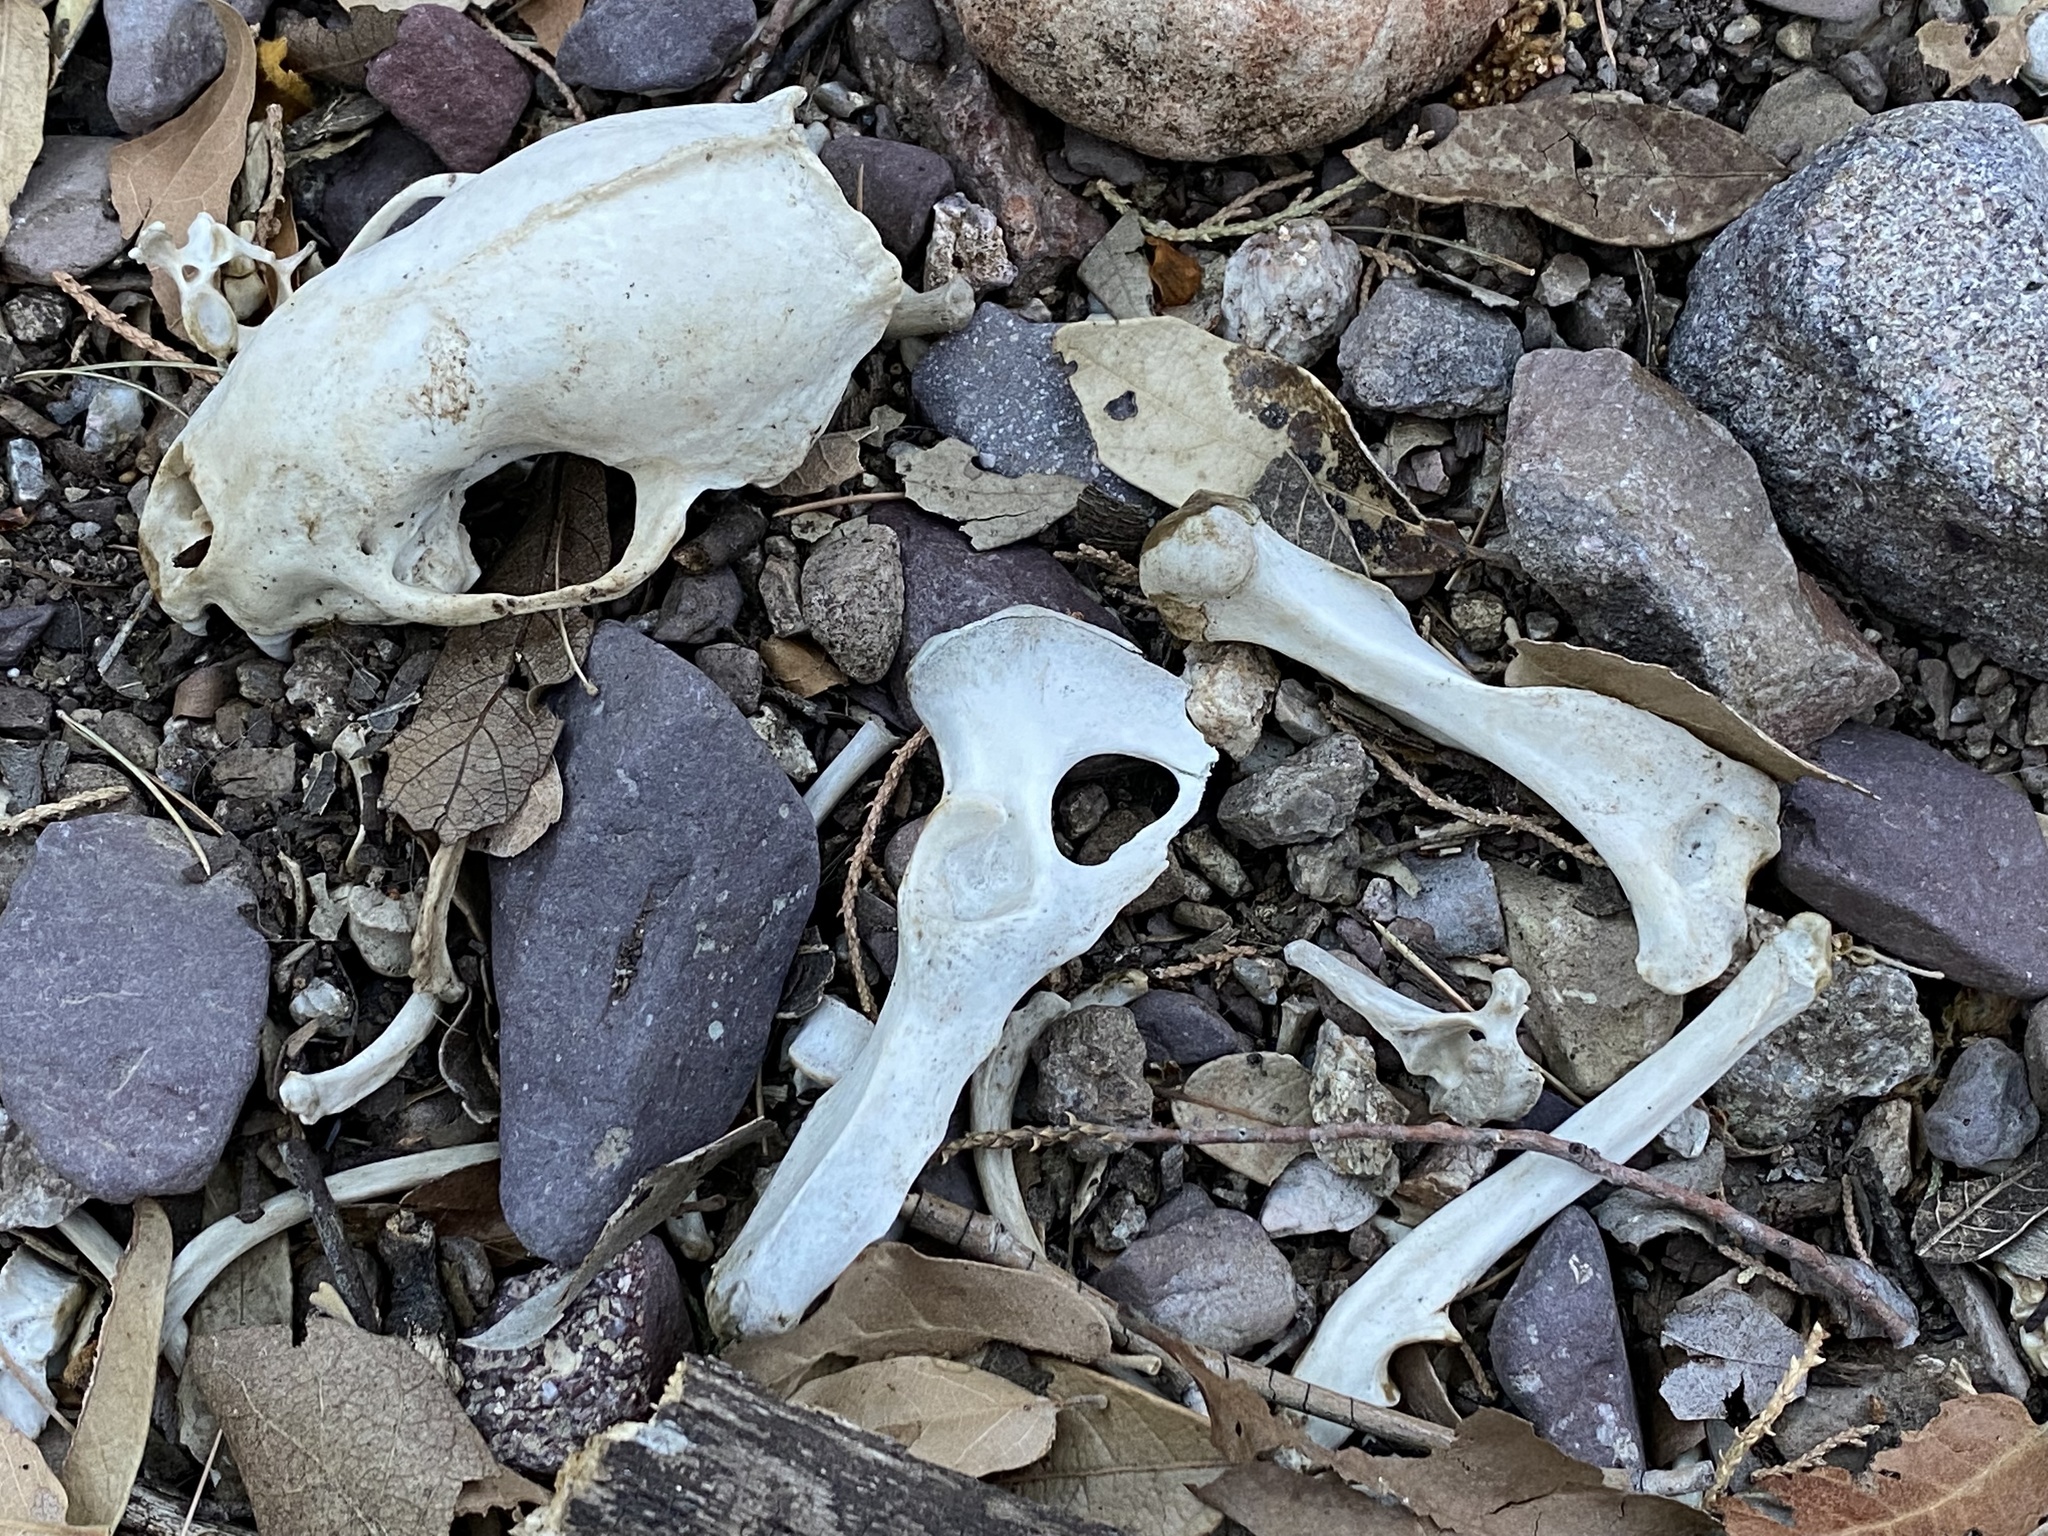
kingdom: Animalia
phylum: Chordata
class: Mammalia
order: Carnivora
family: Mephitidae
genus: Conepatus
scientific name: Conepatus leuconotus
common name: Eastern hog-nosed skunk
